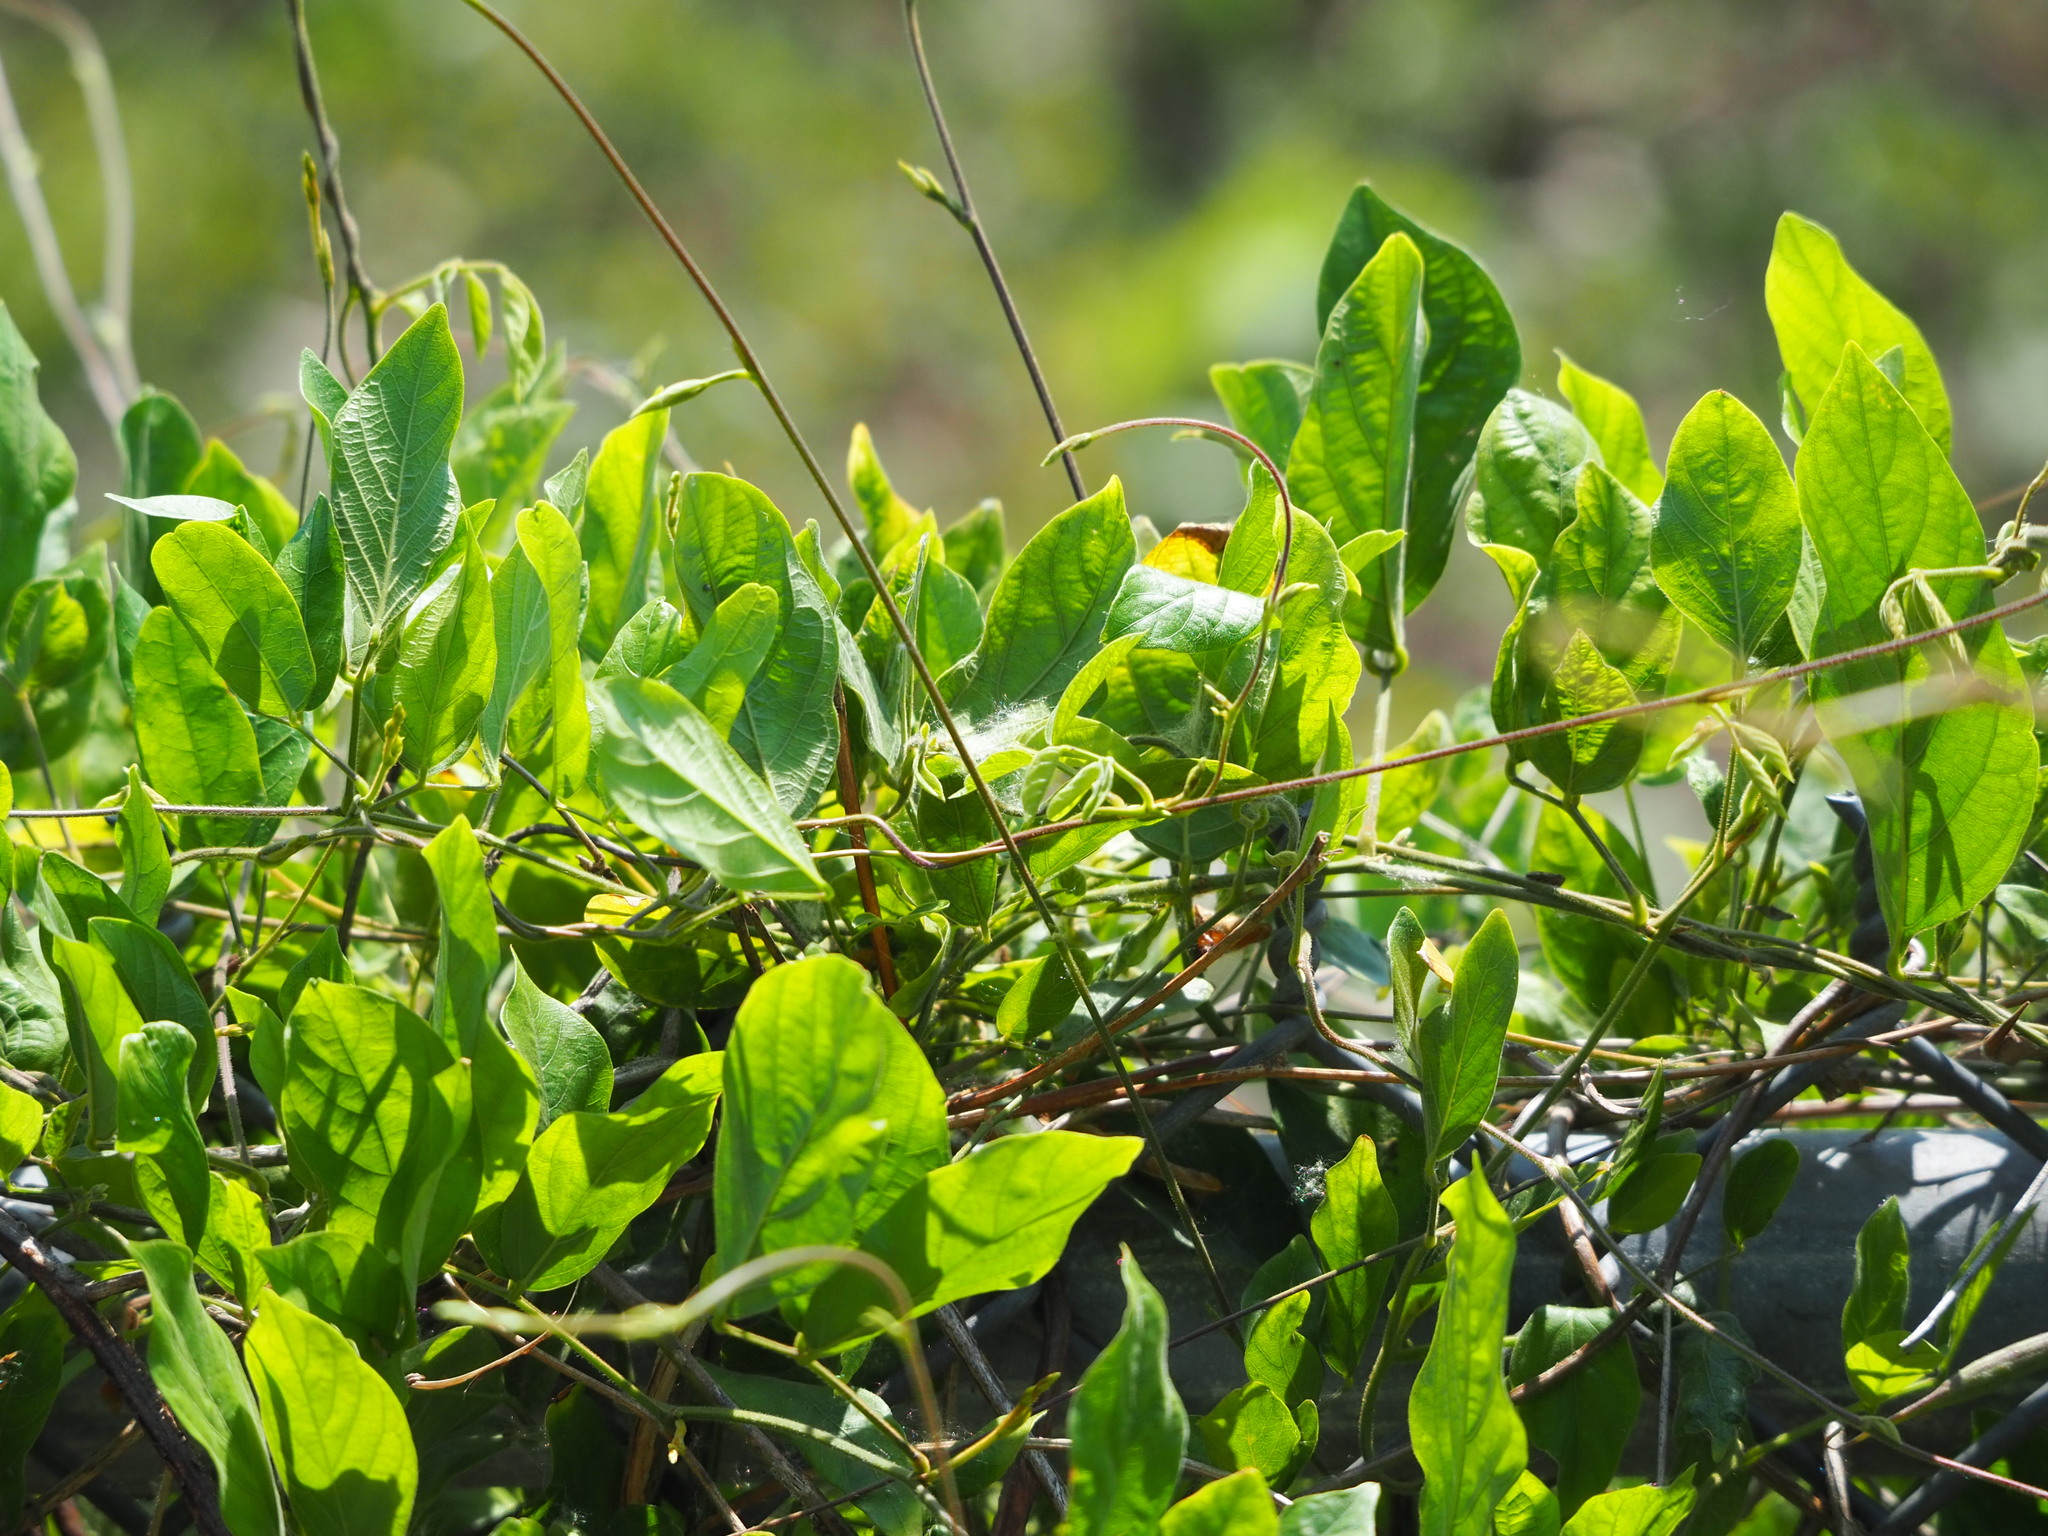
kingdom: Plantae
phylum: Tracheophyta
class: Magnoliopsida
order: Fabales
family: Fabaceae
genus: Centrosema
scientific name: Centrosema pubescens
